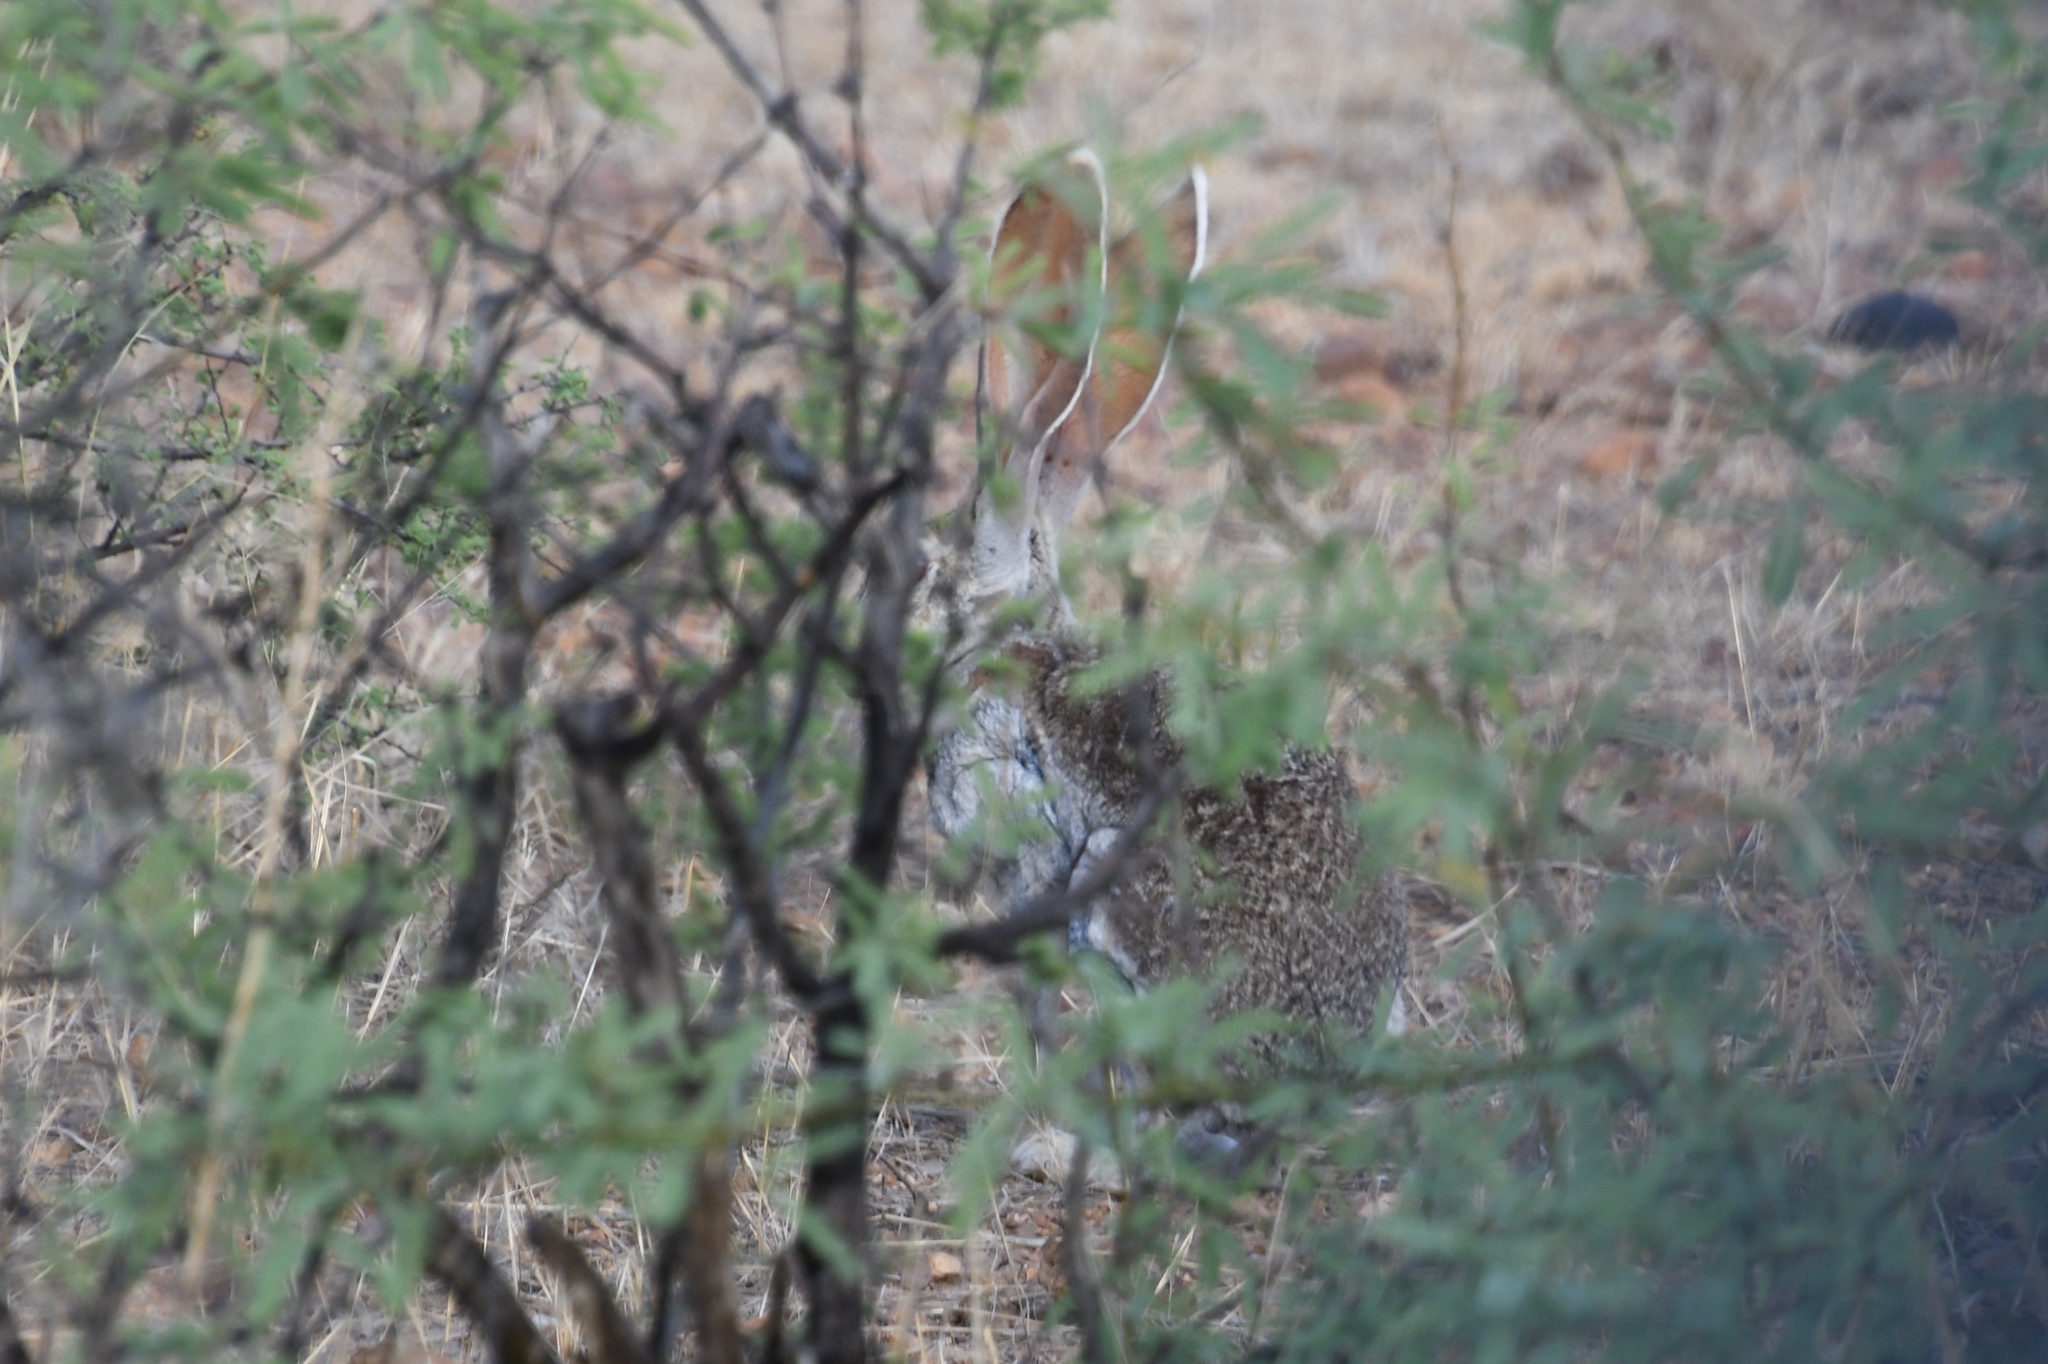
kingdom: Animalia
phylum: Chordata
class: Mammalia
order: Lagomorpha
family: Leporidae
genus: Lepus
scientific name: Lepus alleni
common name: Antelope jackrabbit
